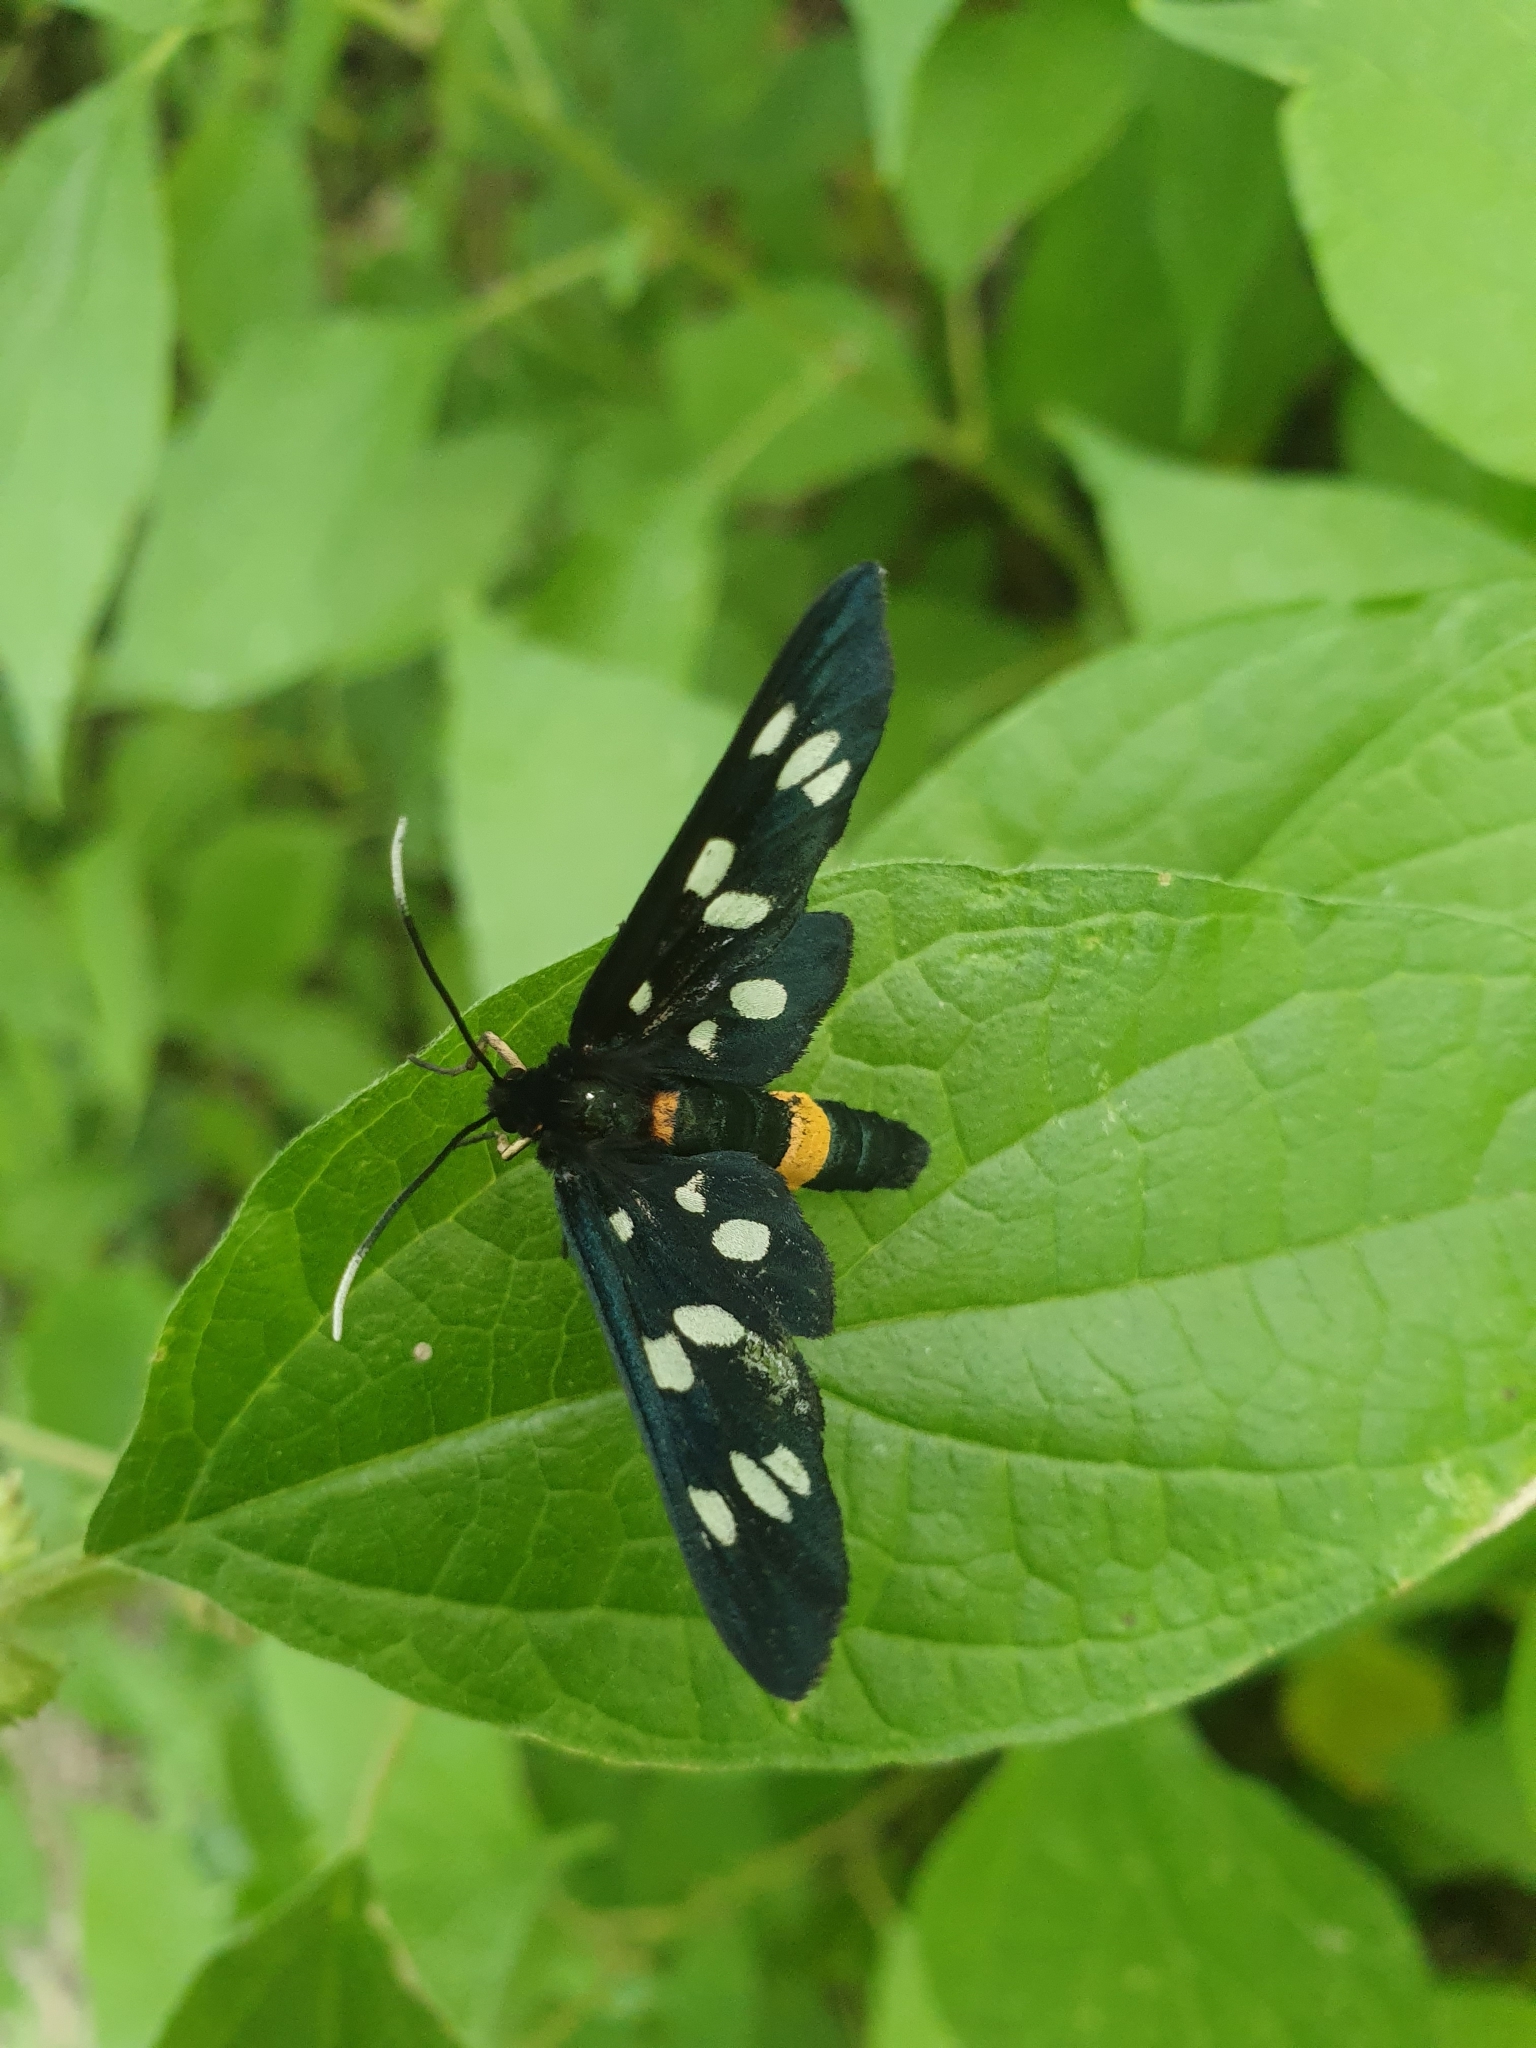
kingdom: Animalia
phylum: Arthropoda
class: Insecta
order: Lepidoptera
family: Erebidae
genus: Amata
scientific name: Amata phegea
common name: Nine-spotted
